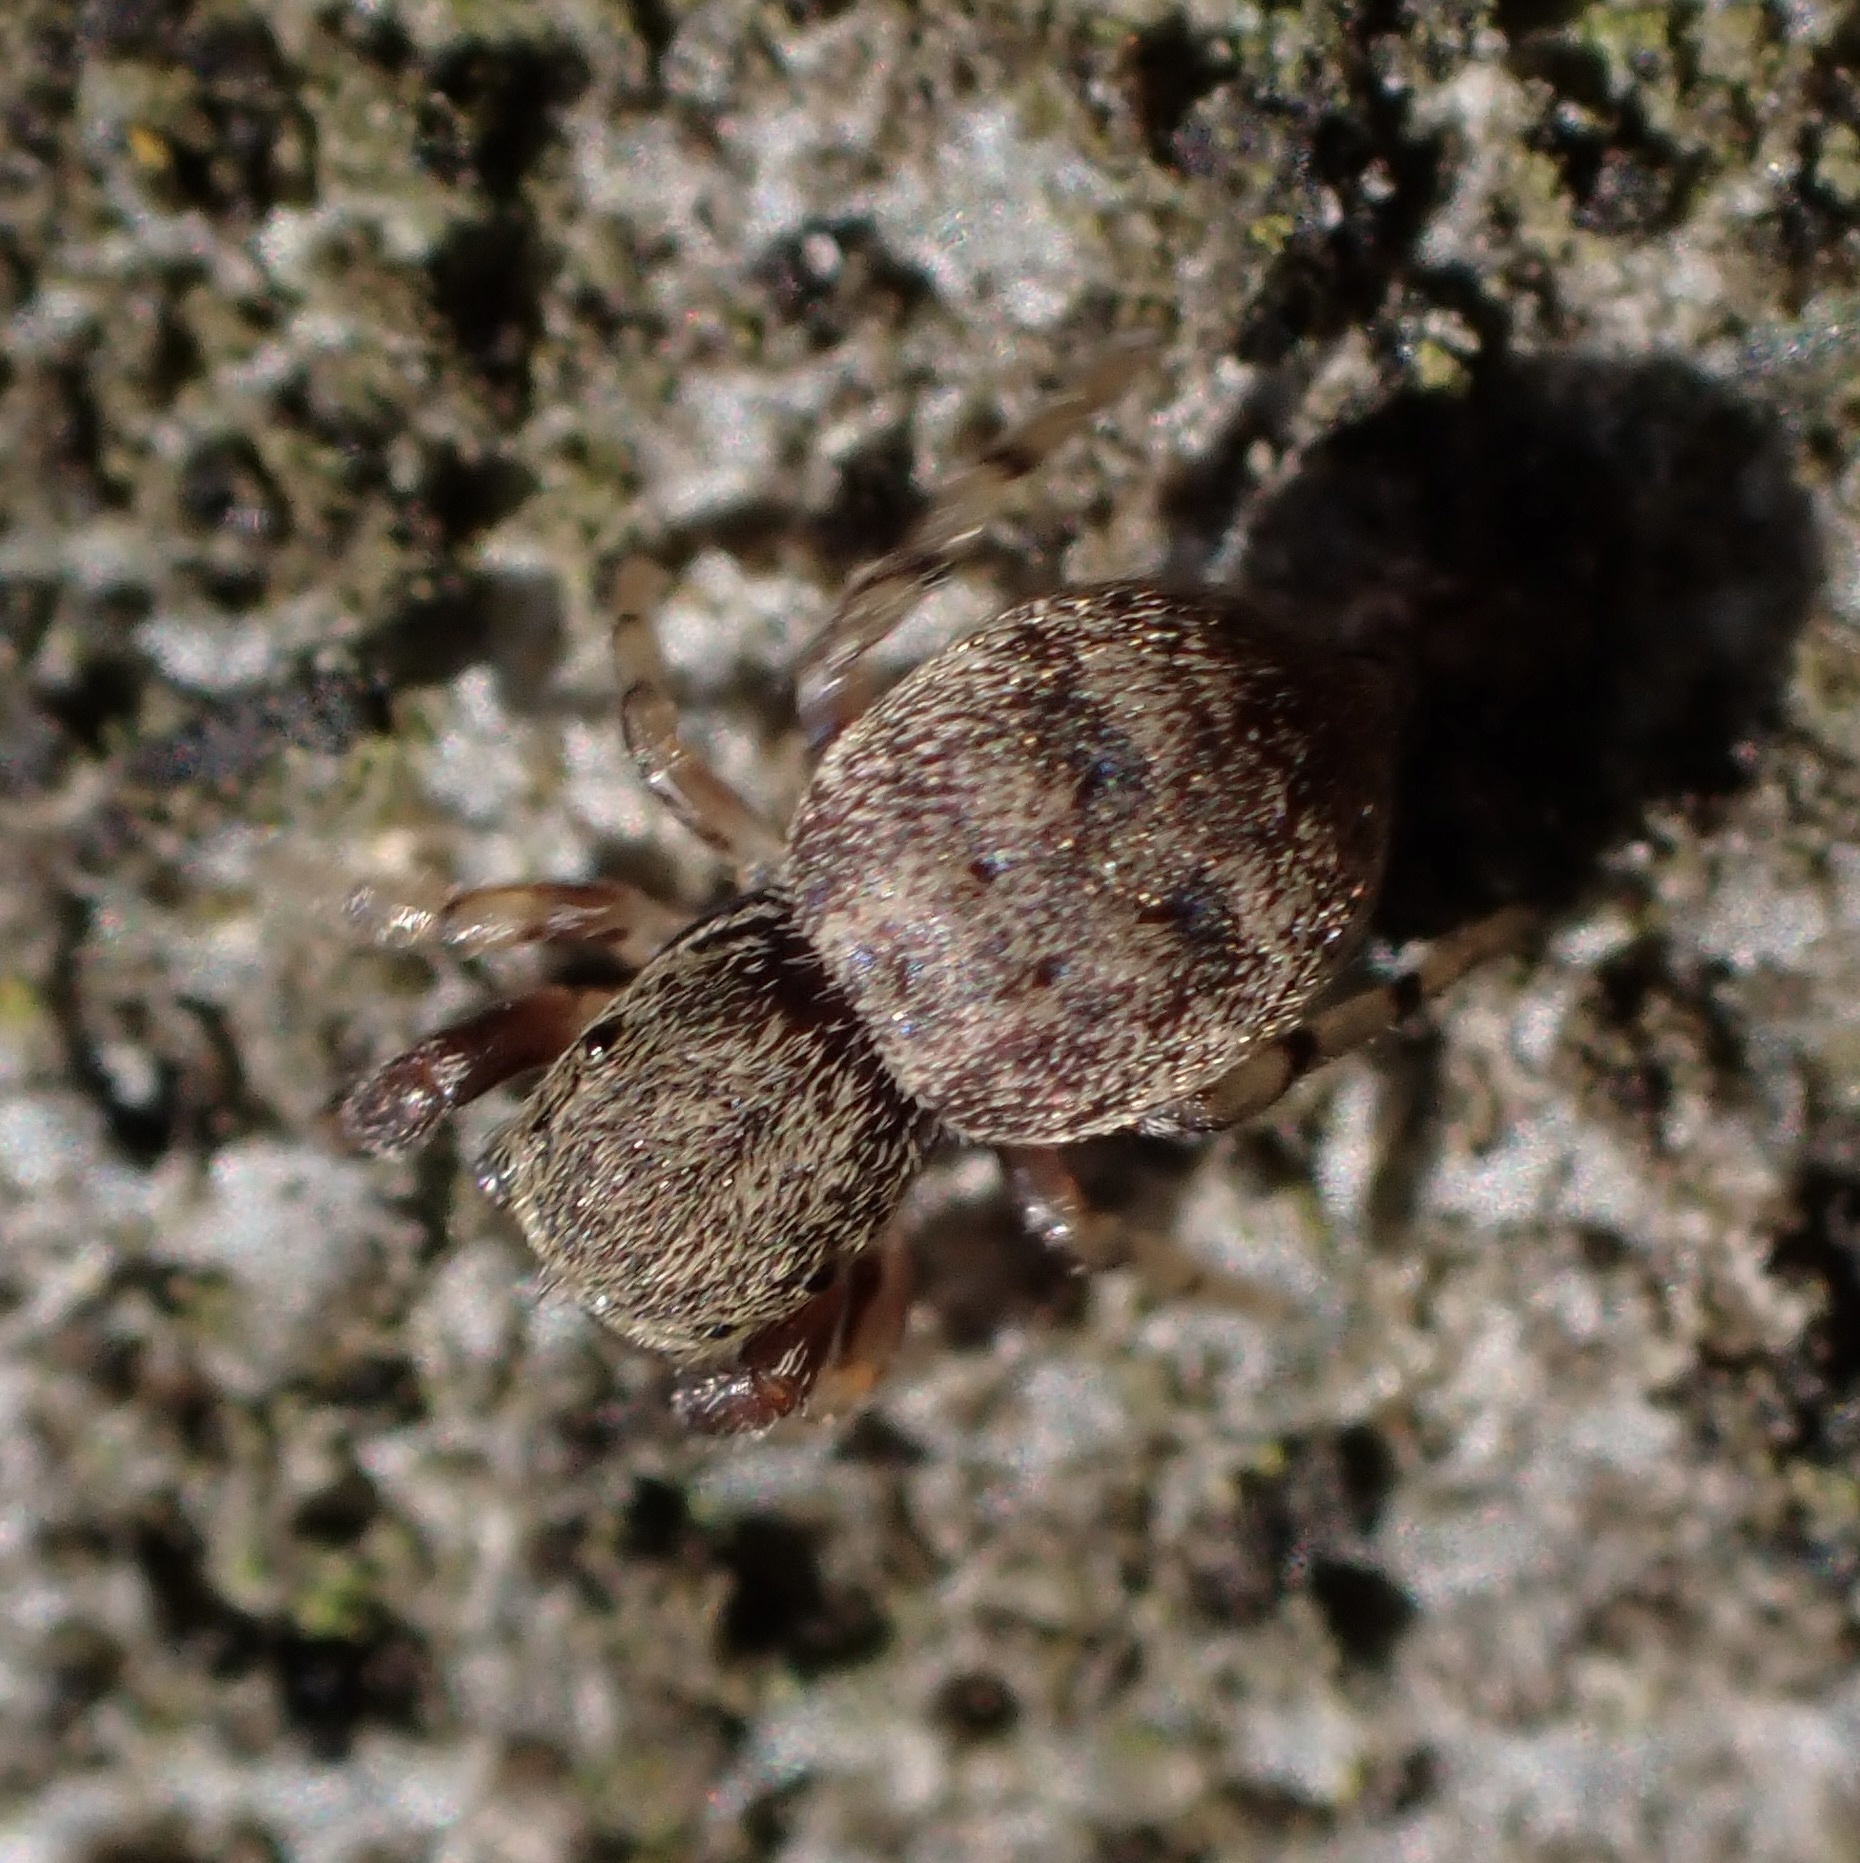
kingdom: Animalia
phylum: Arthropoda
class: Arachnida
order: Araneae
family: Salticidae
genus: Ballus
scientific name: Ballus chalybeius
